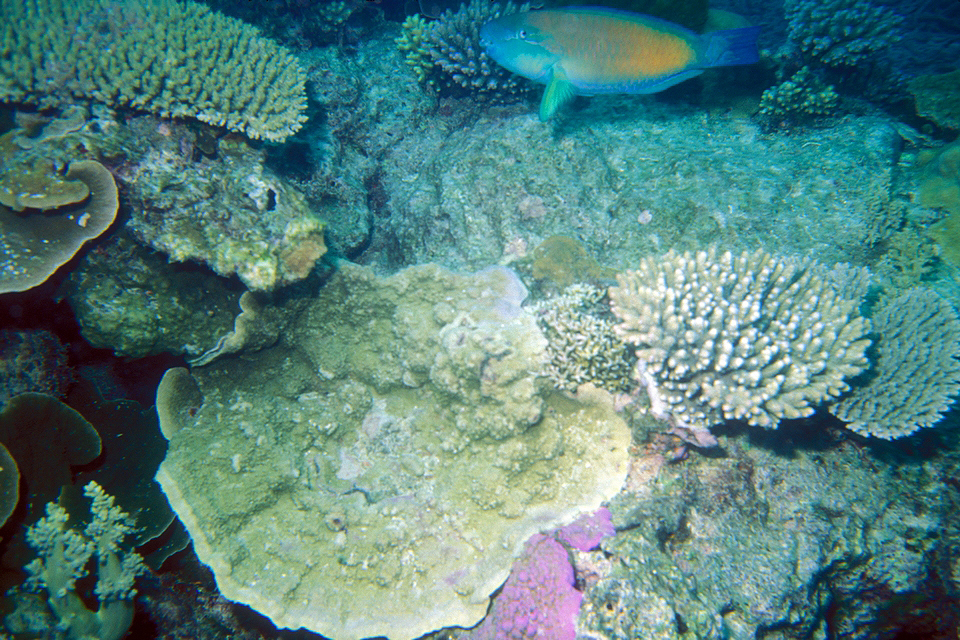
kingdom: Animalia
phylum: Chordata
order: Perciformes
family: Scaridae
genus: Chlorurus
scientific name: Chlorurus spilurus
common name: Bullethead parrotfish
